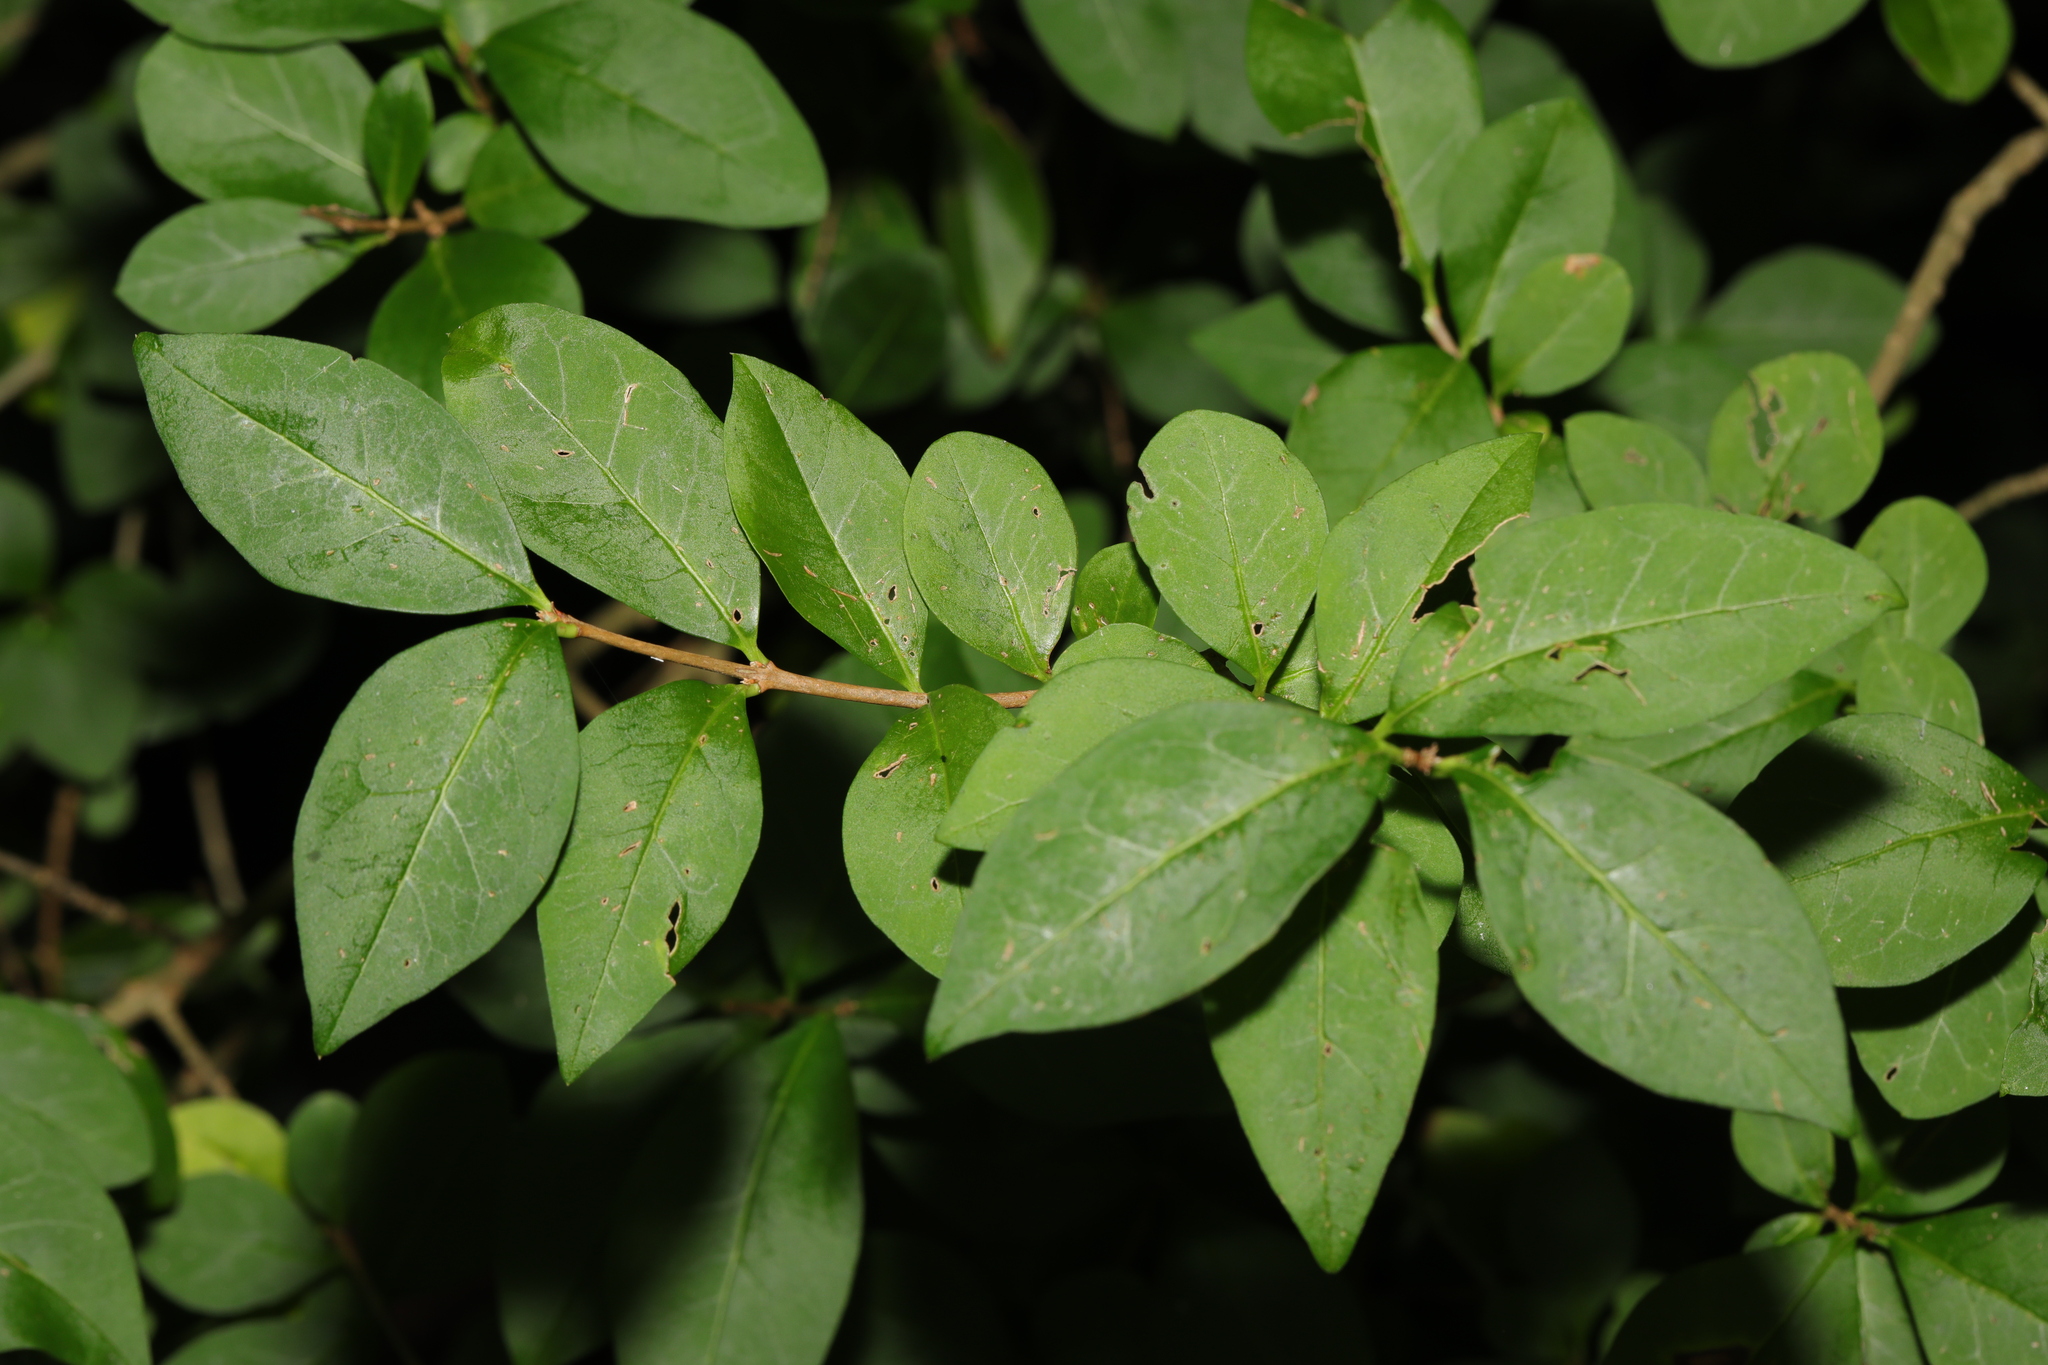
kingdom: Plantae
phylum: Tracheophyta
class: Magnoliopsida
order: Lamiales
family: Oleaceae
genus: Ligustrum
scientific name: Ligustrum ovalifolium
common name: California privet
